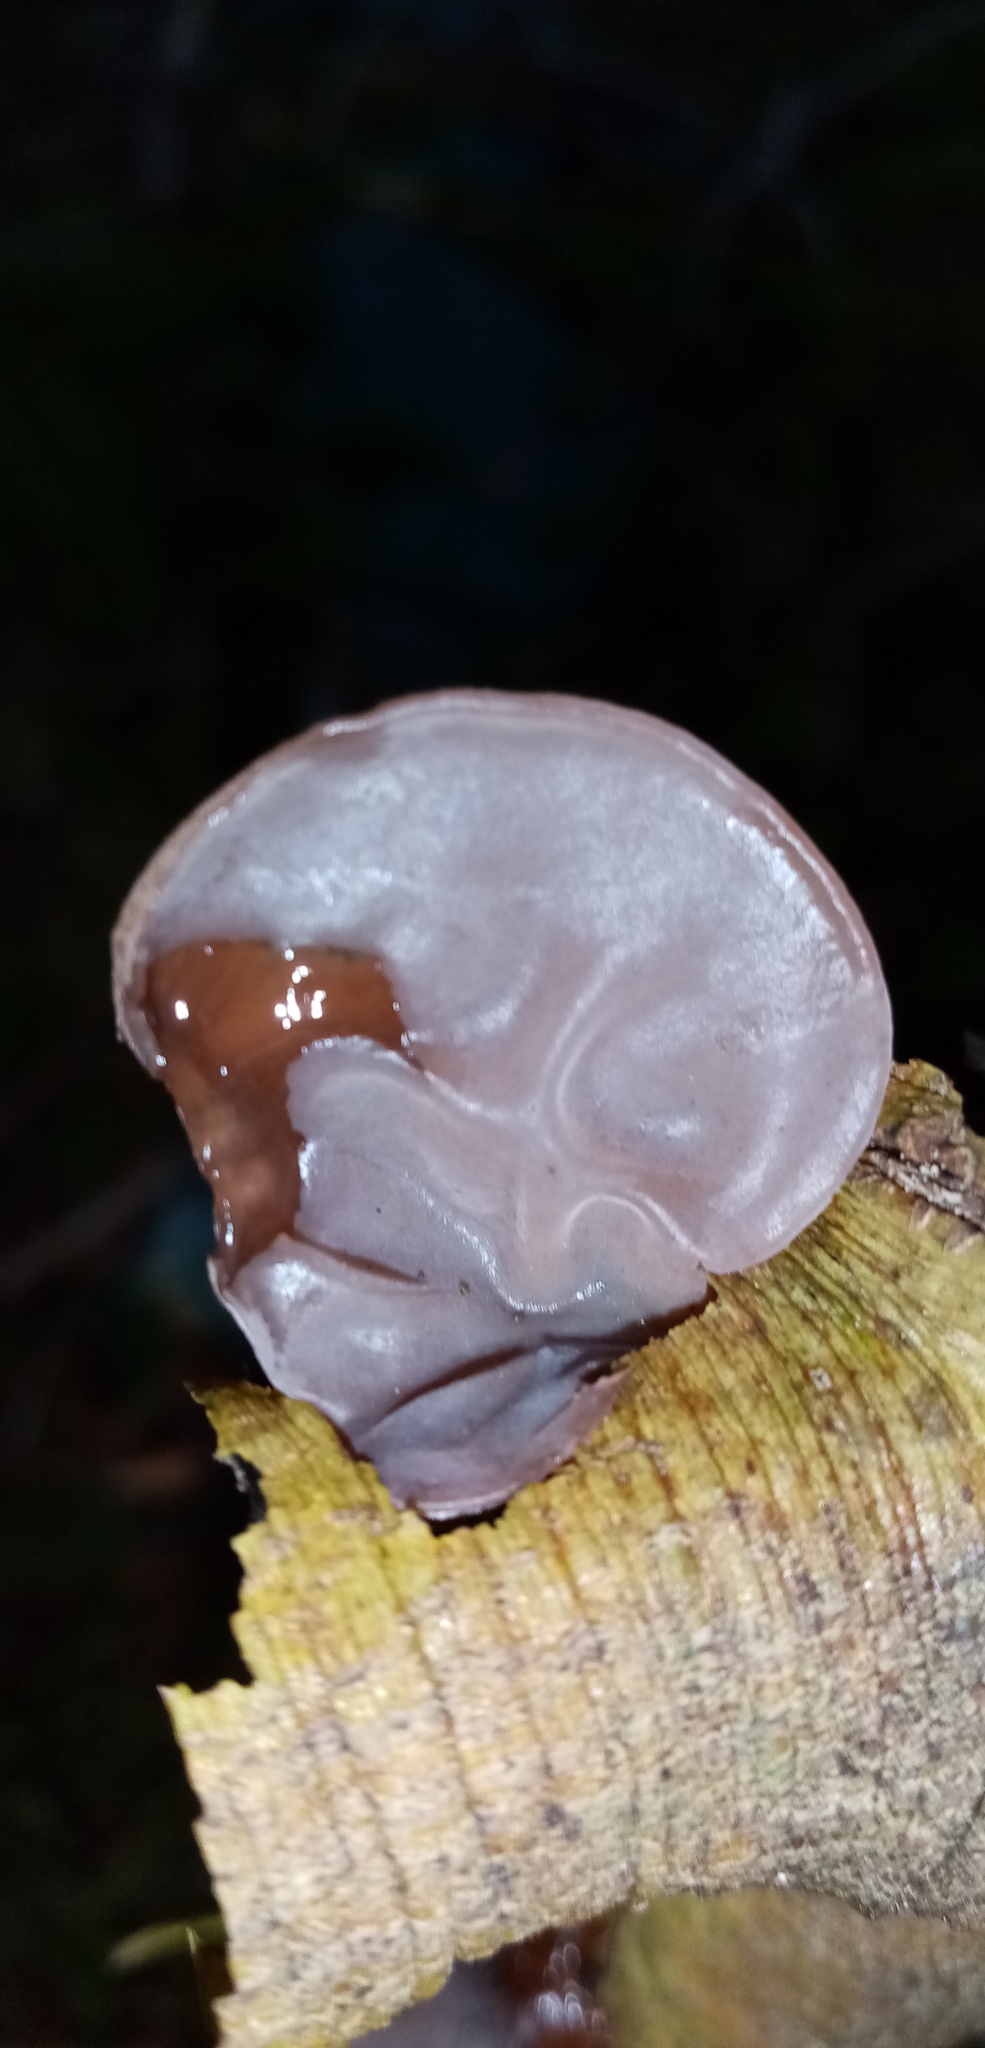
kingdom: Fungi
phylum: Basidiomycota
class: Agaricomycetes
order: Auriculariales
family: Auriculariaceae
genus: Auricularia
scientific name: Auricularia auricula-judae
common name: Jelly ear
